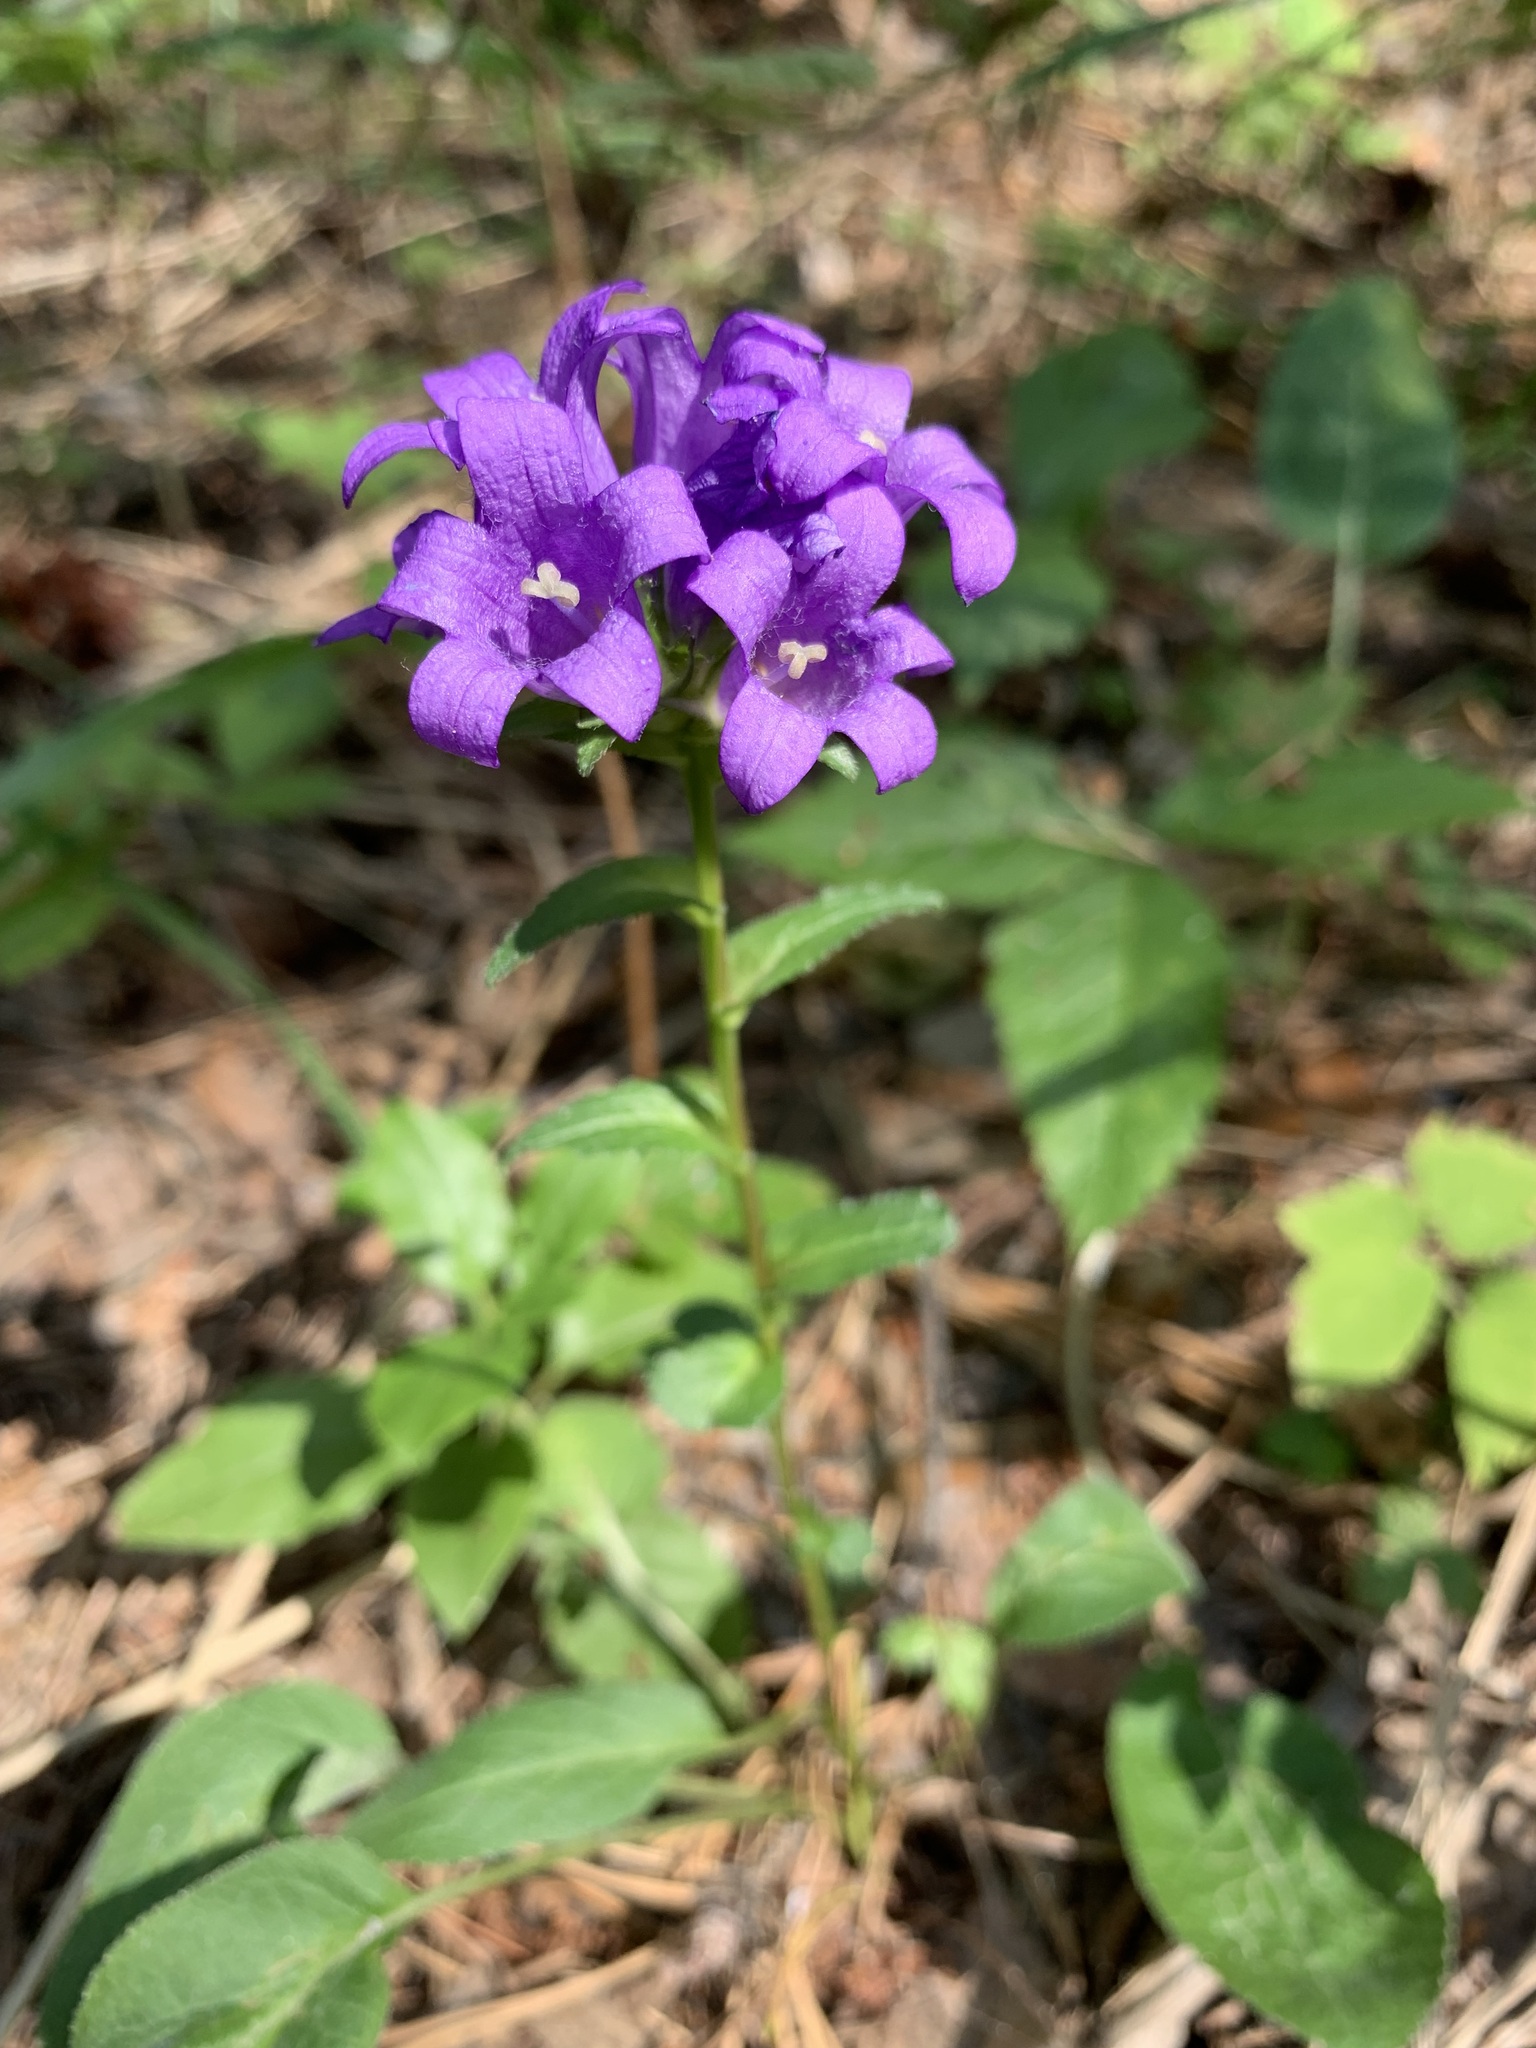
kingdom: Plantae
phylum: Tracheophyta
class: Magnoliopsida
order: Asterales
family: Campanulaceae
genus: Campanula
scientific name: Campanula glomerata
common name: Clustered bellflower
